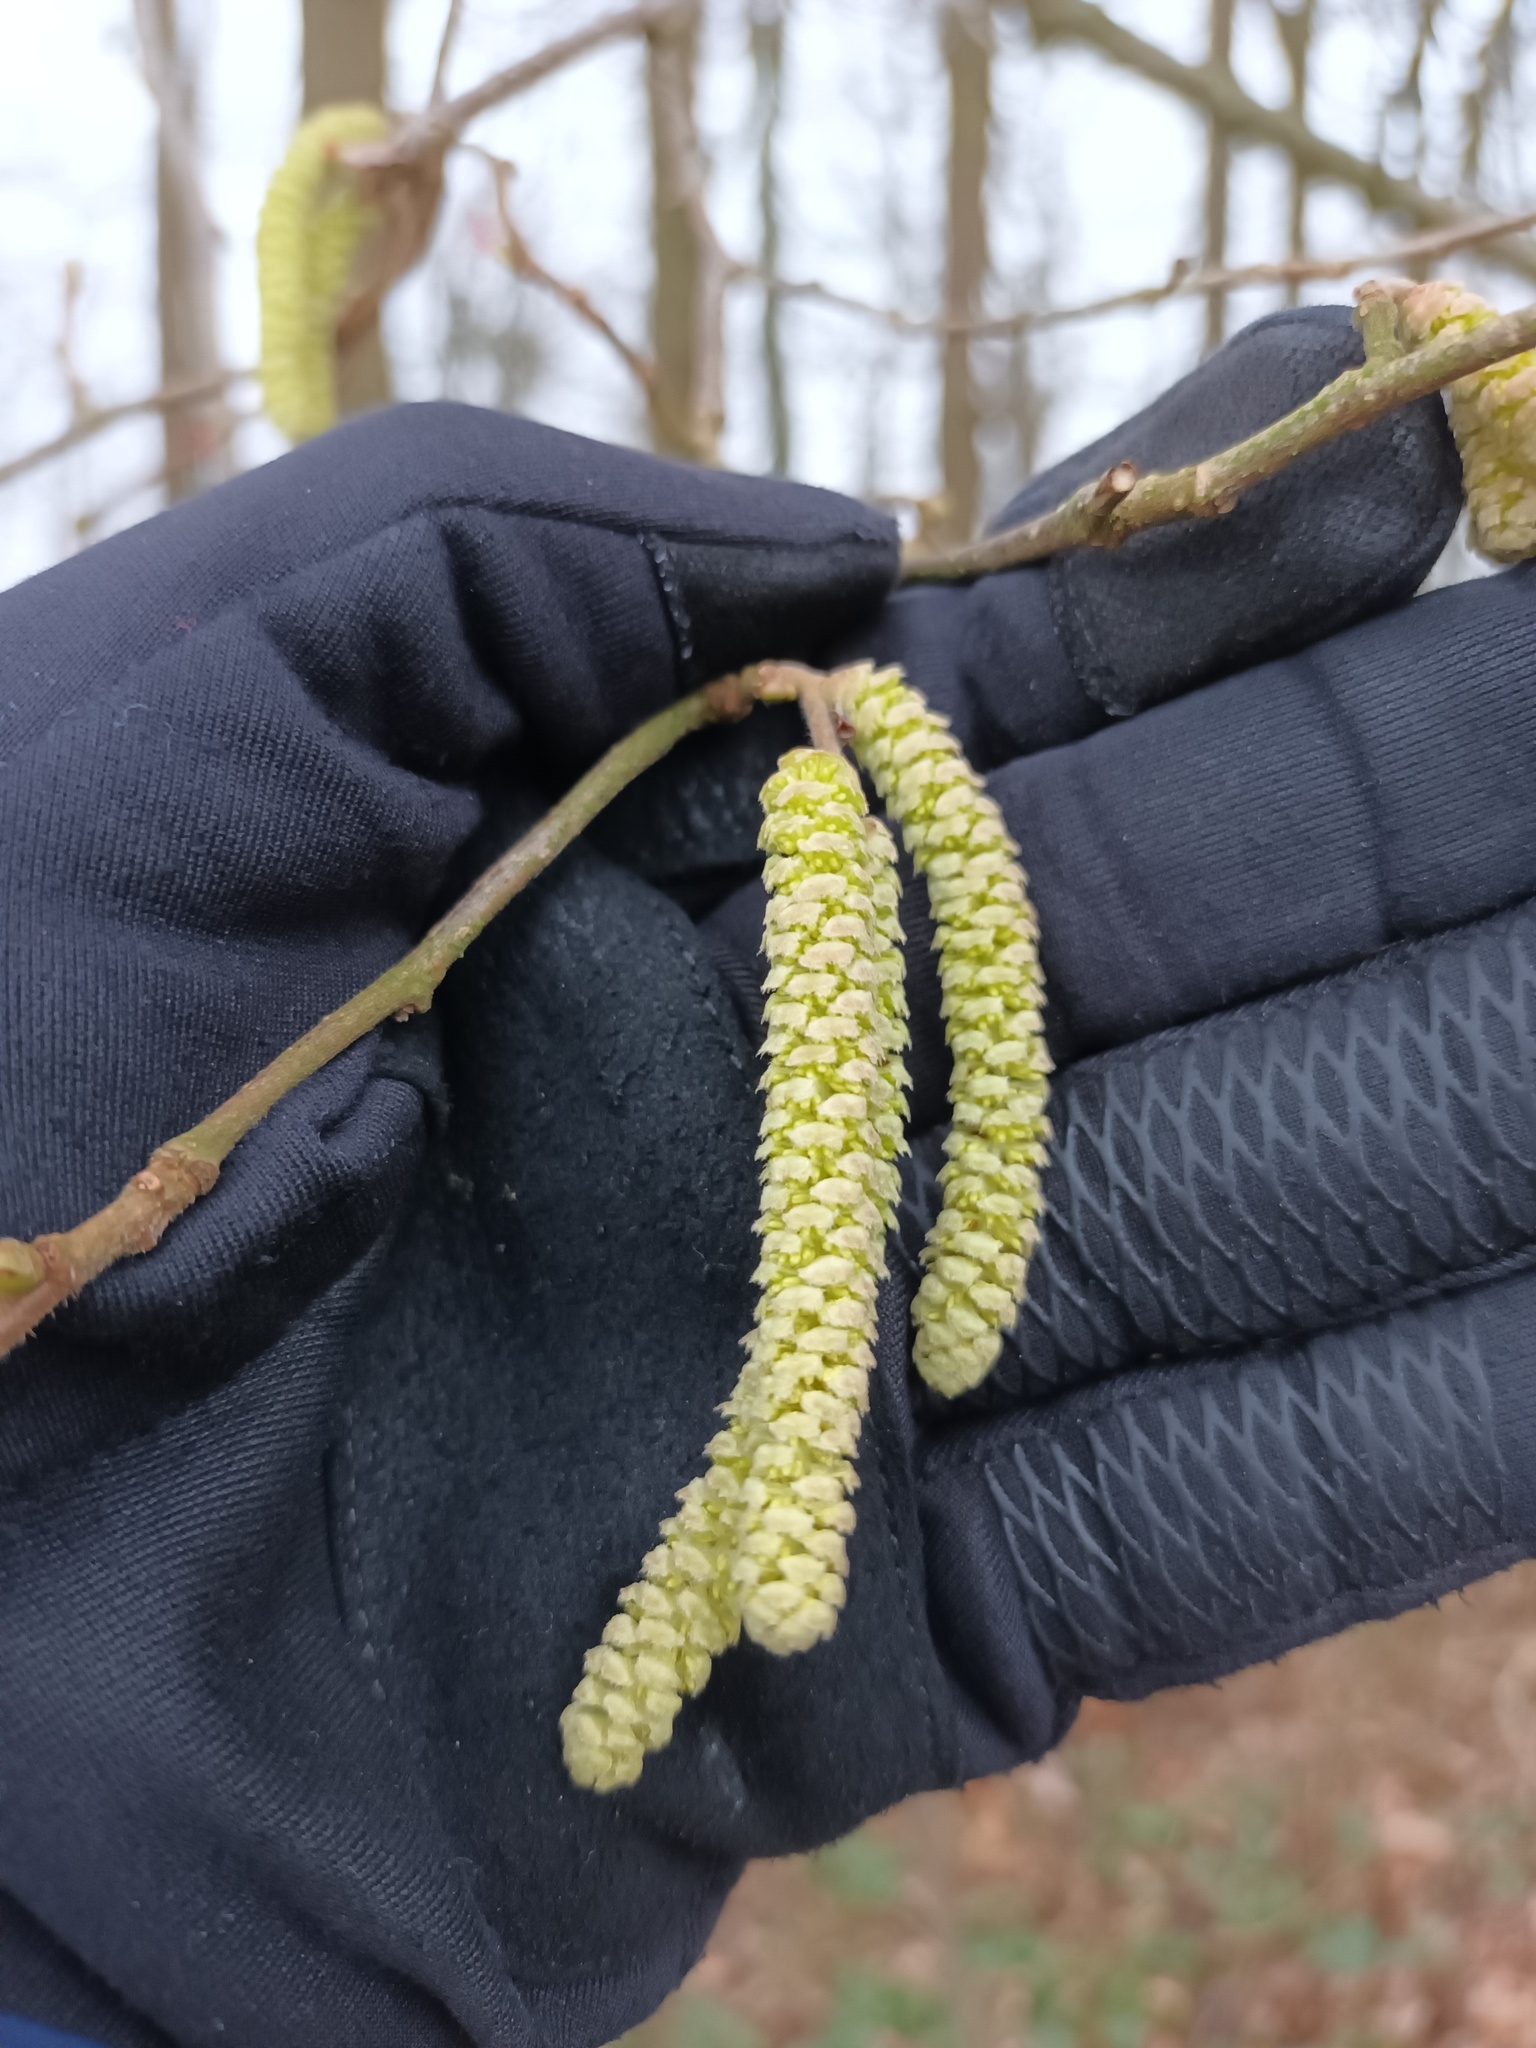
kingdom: Plantae
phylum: Tracheophyta
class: Magnoliopsida
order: Fagales
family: Betulaceae
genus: Corylus
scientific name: Corylus avellana
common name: European hazel
